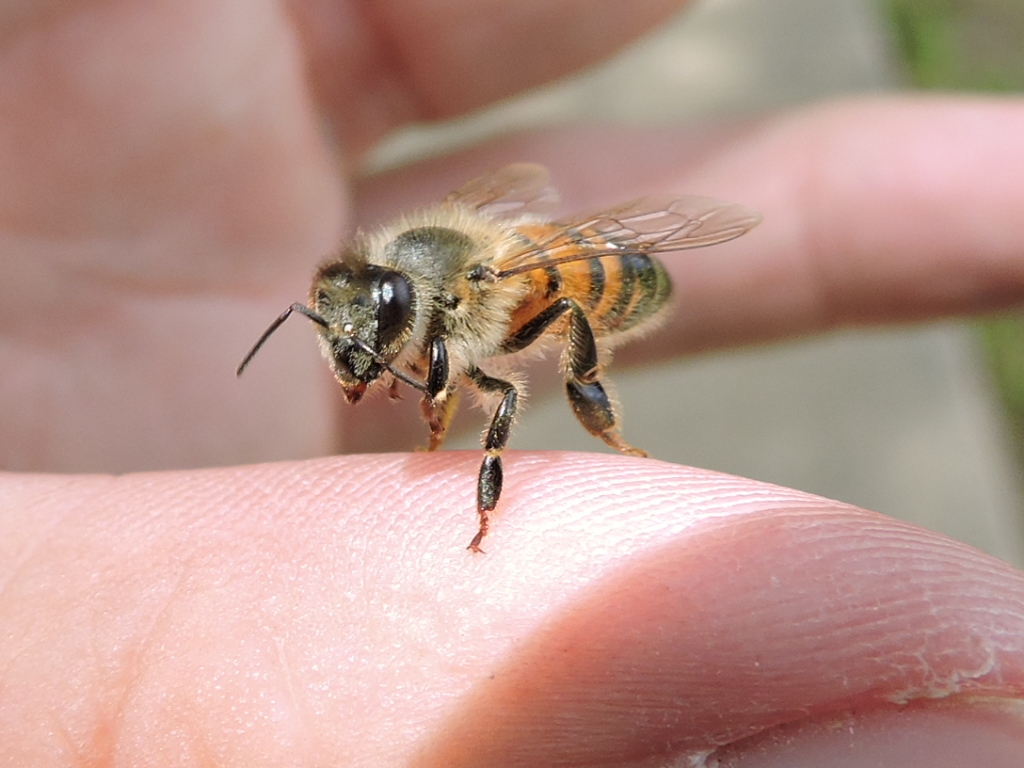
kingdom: Animalia
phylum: Arthropoda
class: Insecta
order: Hymenoptera
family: Apidae
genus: Apis
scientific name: Apis mellifera
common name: Honey bee
